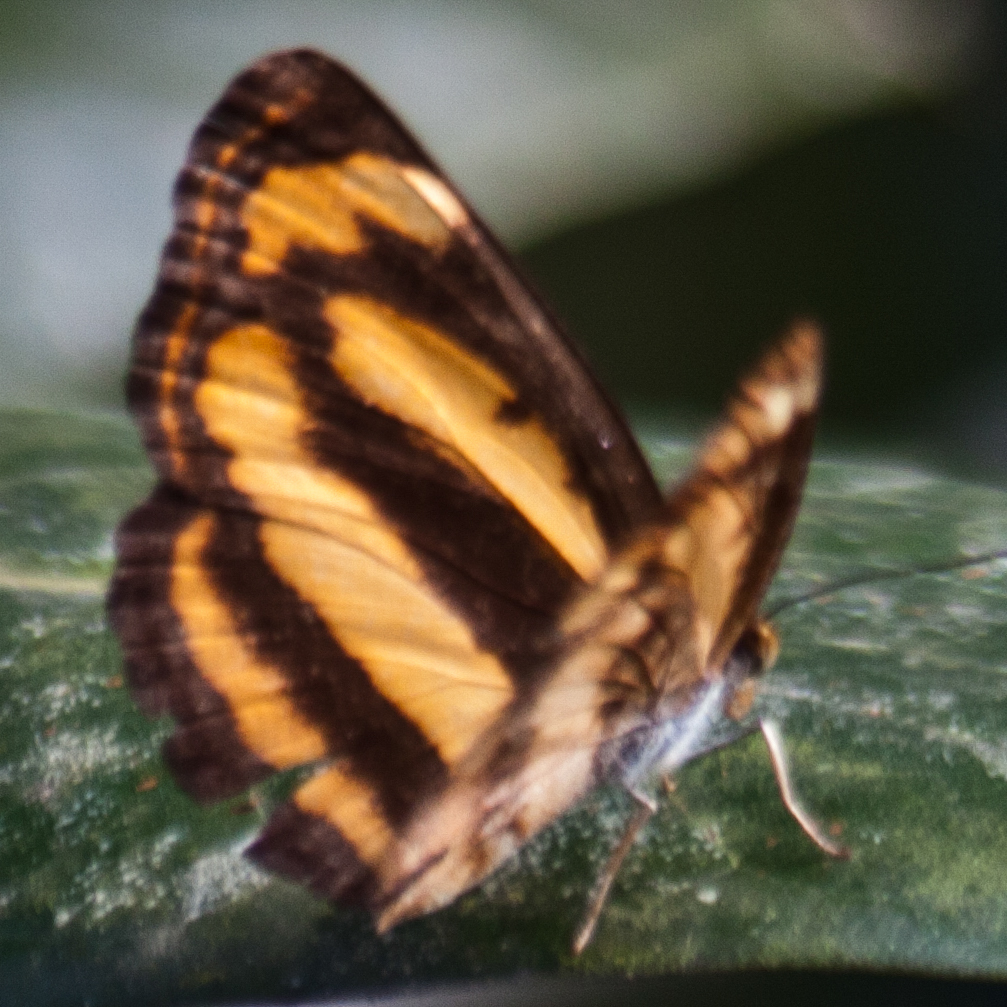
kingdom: Animalia
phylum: Arthropoda
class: Insecta
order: Lepidoptera
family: Nymphalidae
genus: Pantoporia
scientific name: Pantoporia hordonia
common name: Common lascar
